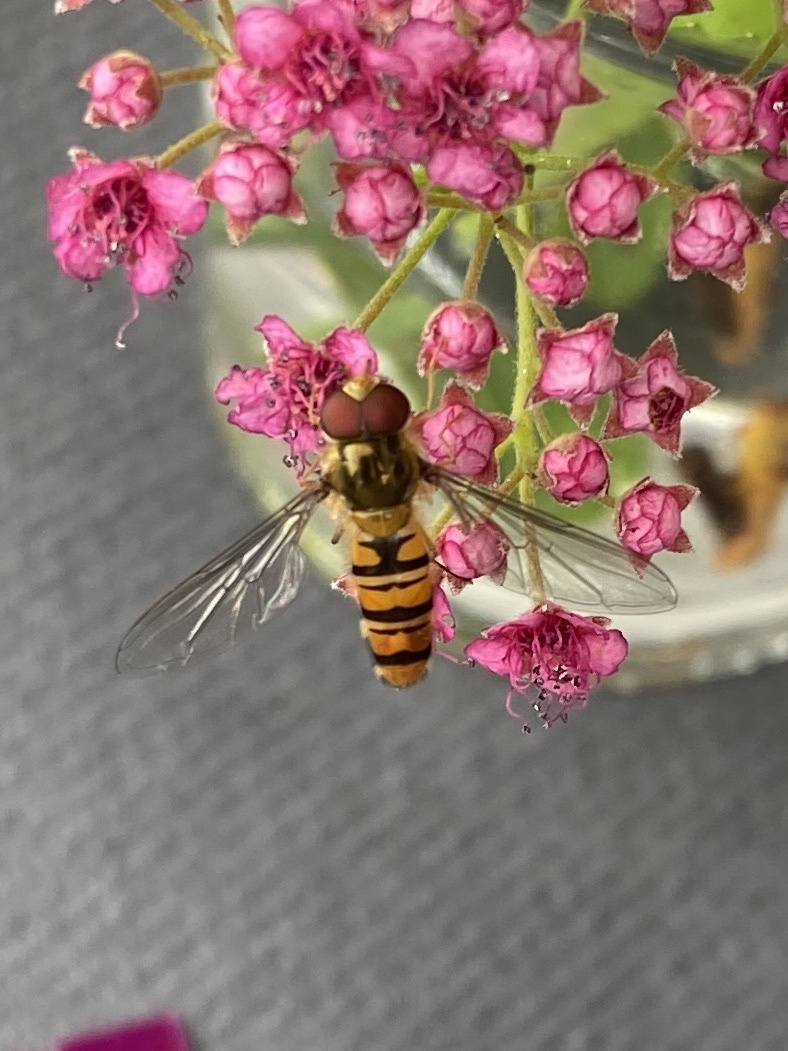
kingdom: Animalia
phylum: Arthropoda
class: Insecta
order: Diptera
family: Syrphidae
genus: Episyrphus
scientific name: Episyrphus balteatus
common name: Marmalade hoverfly
